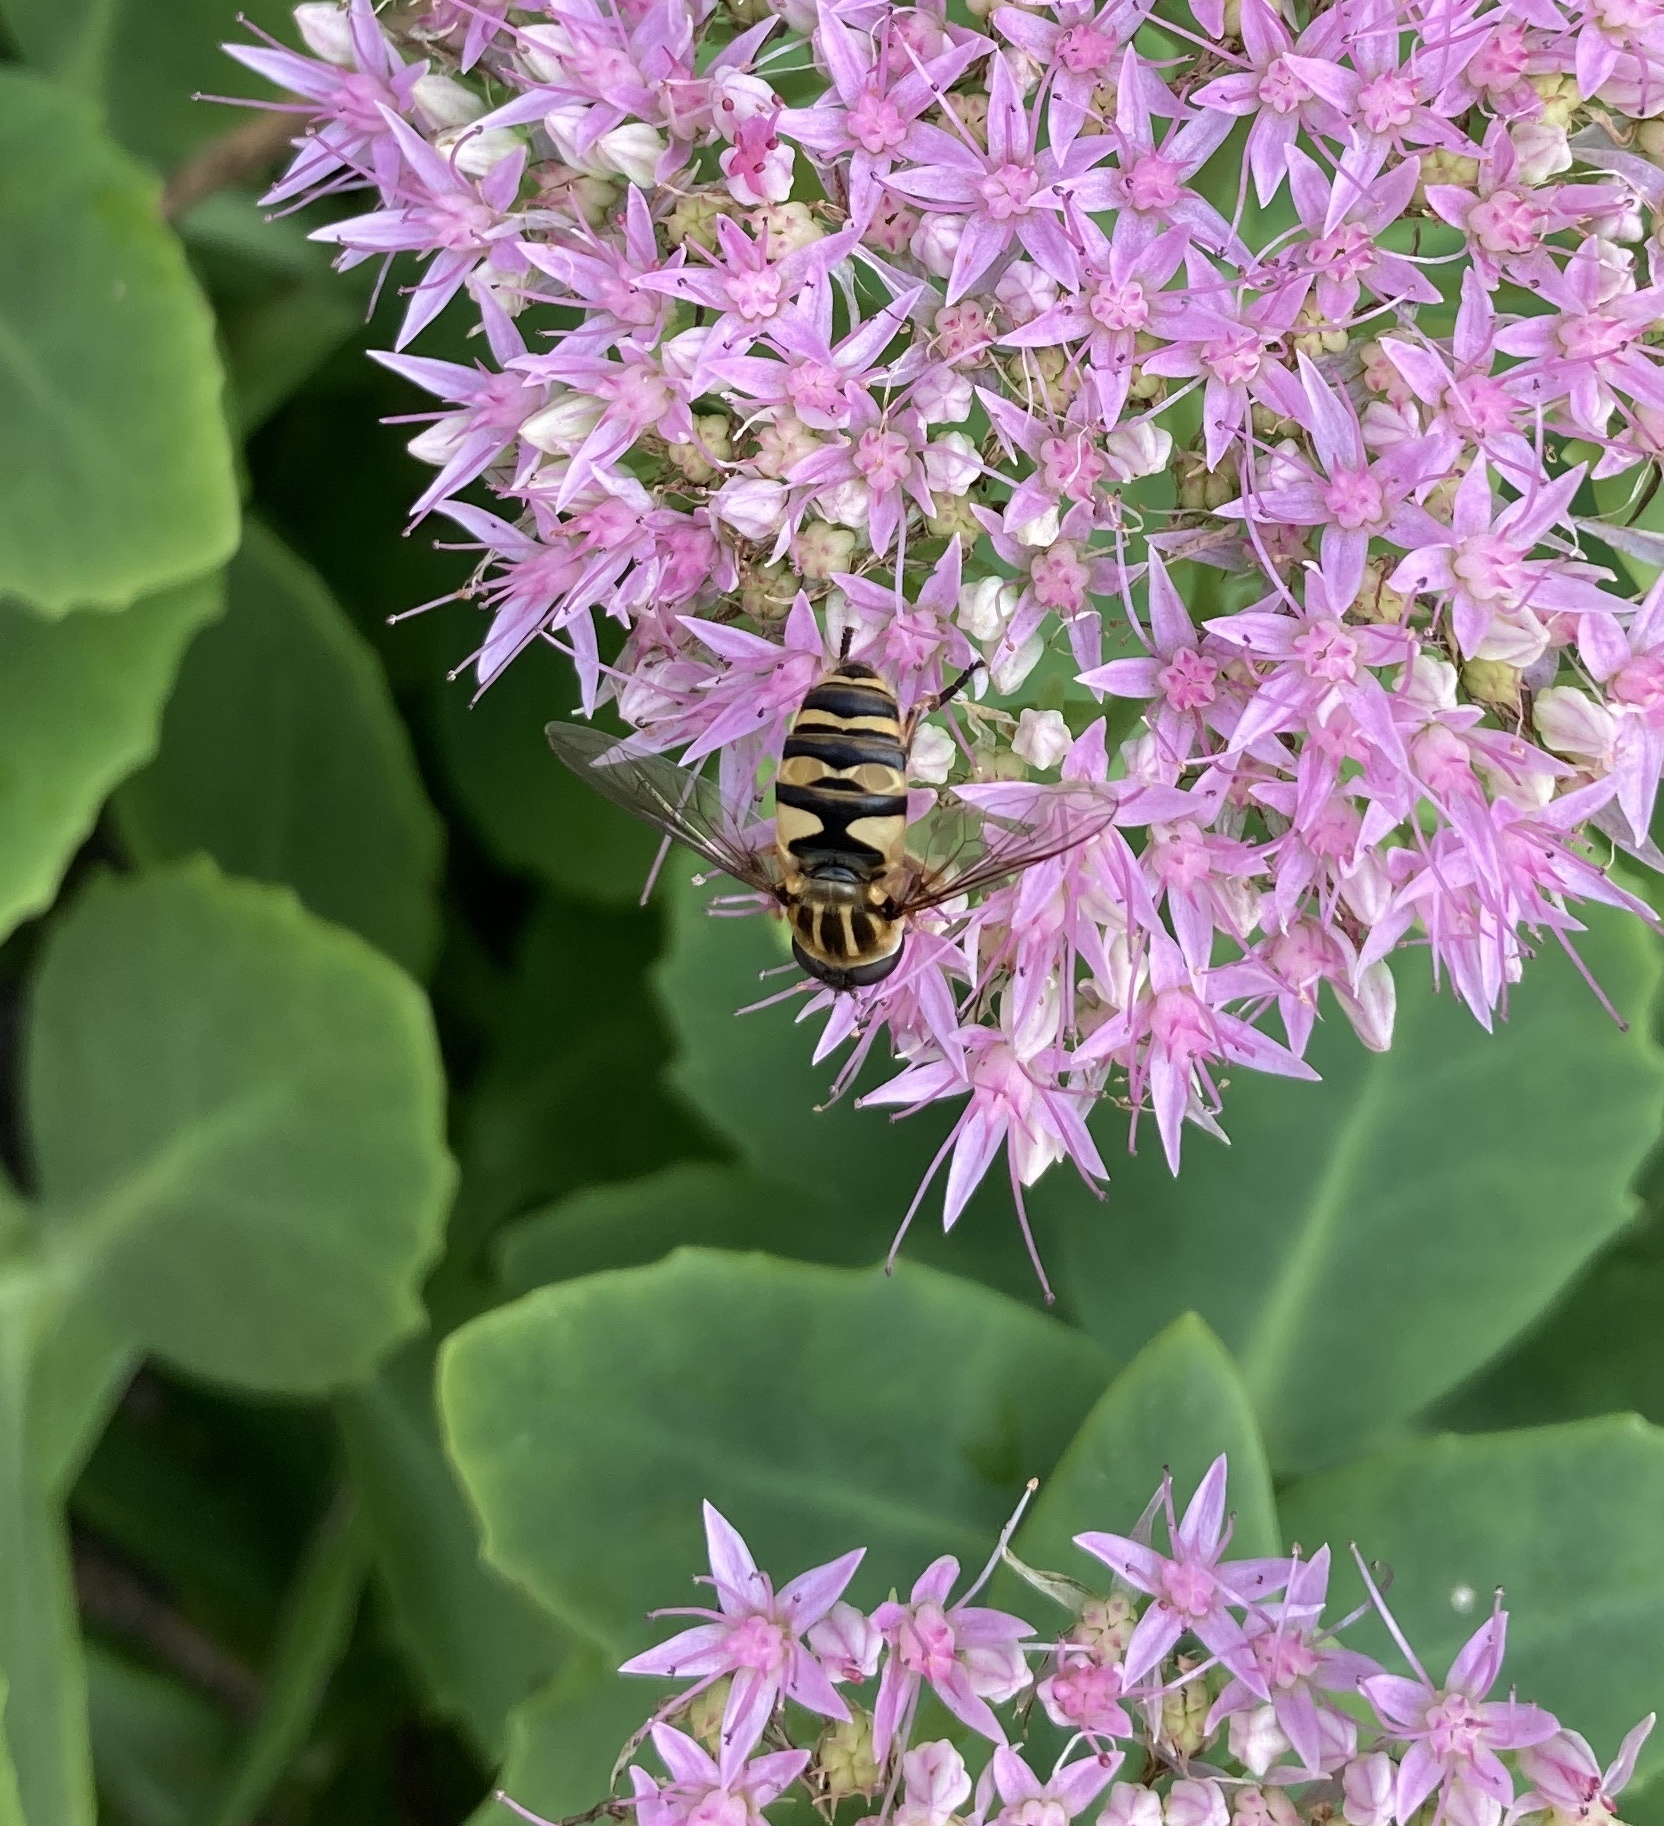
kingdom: Animalia
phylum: Arthropoda
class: Insecta
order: Diptera
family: Syrphidae
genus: Helophilus
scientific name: Helophilus fasciatus
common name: Narrow-headed marsh fly
